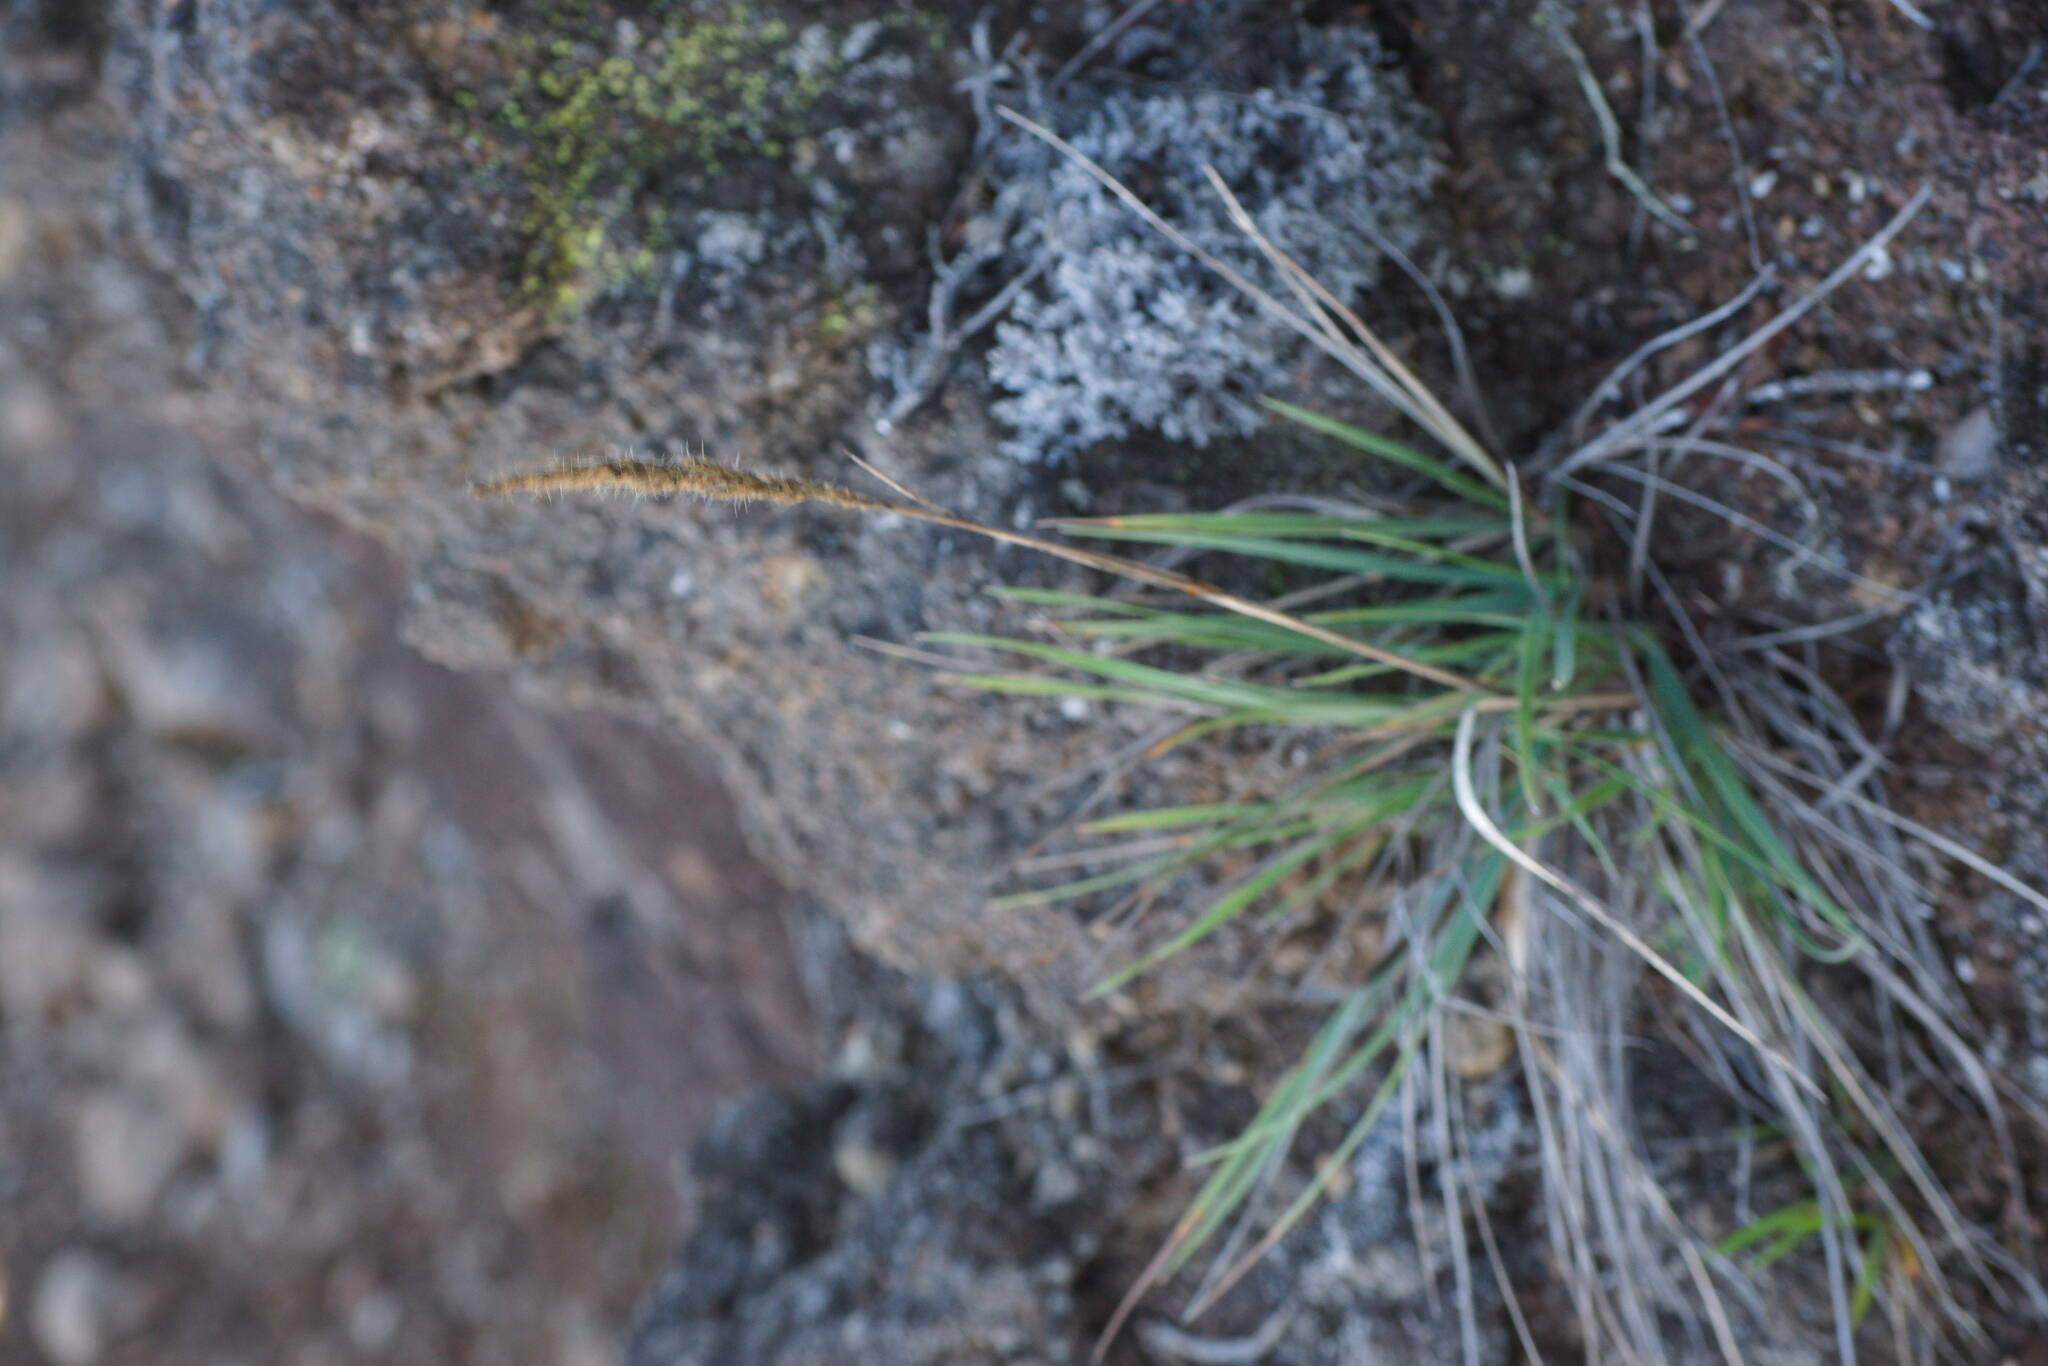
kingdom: Plantae
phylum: Tracheophyta
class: Liliopsida
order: Poales
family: Poaceae
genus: Trisetum
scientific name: Trisetum glomeratum
